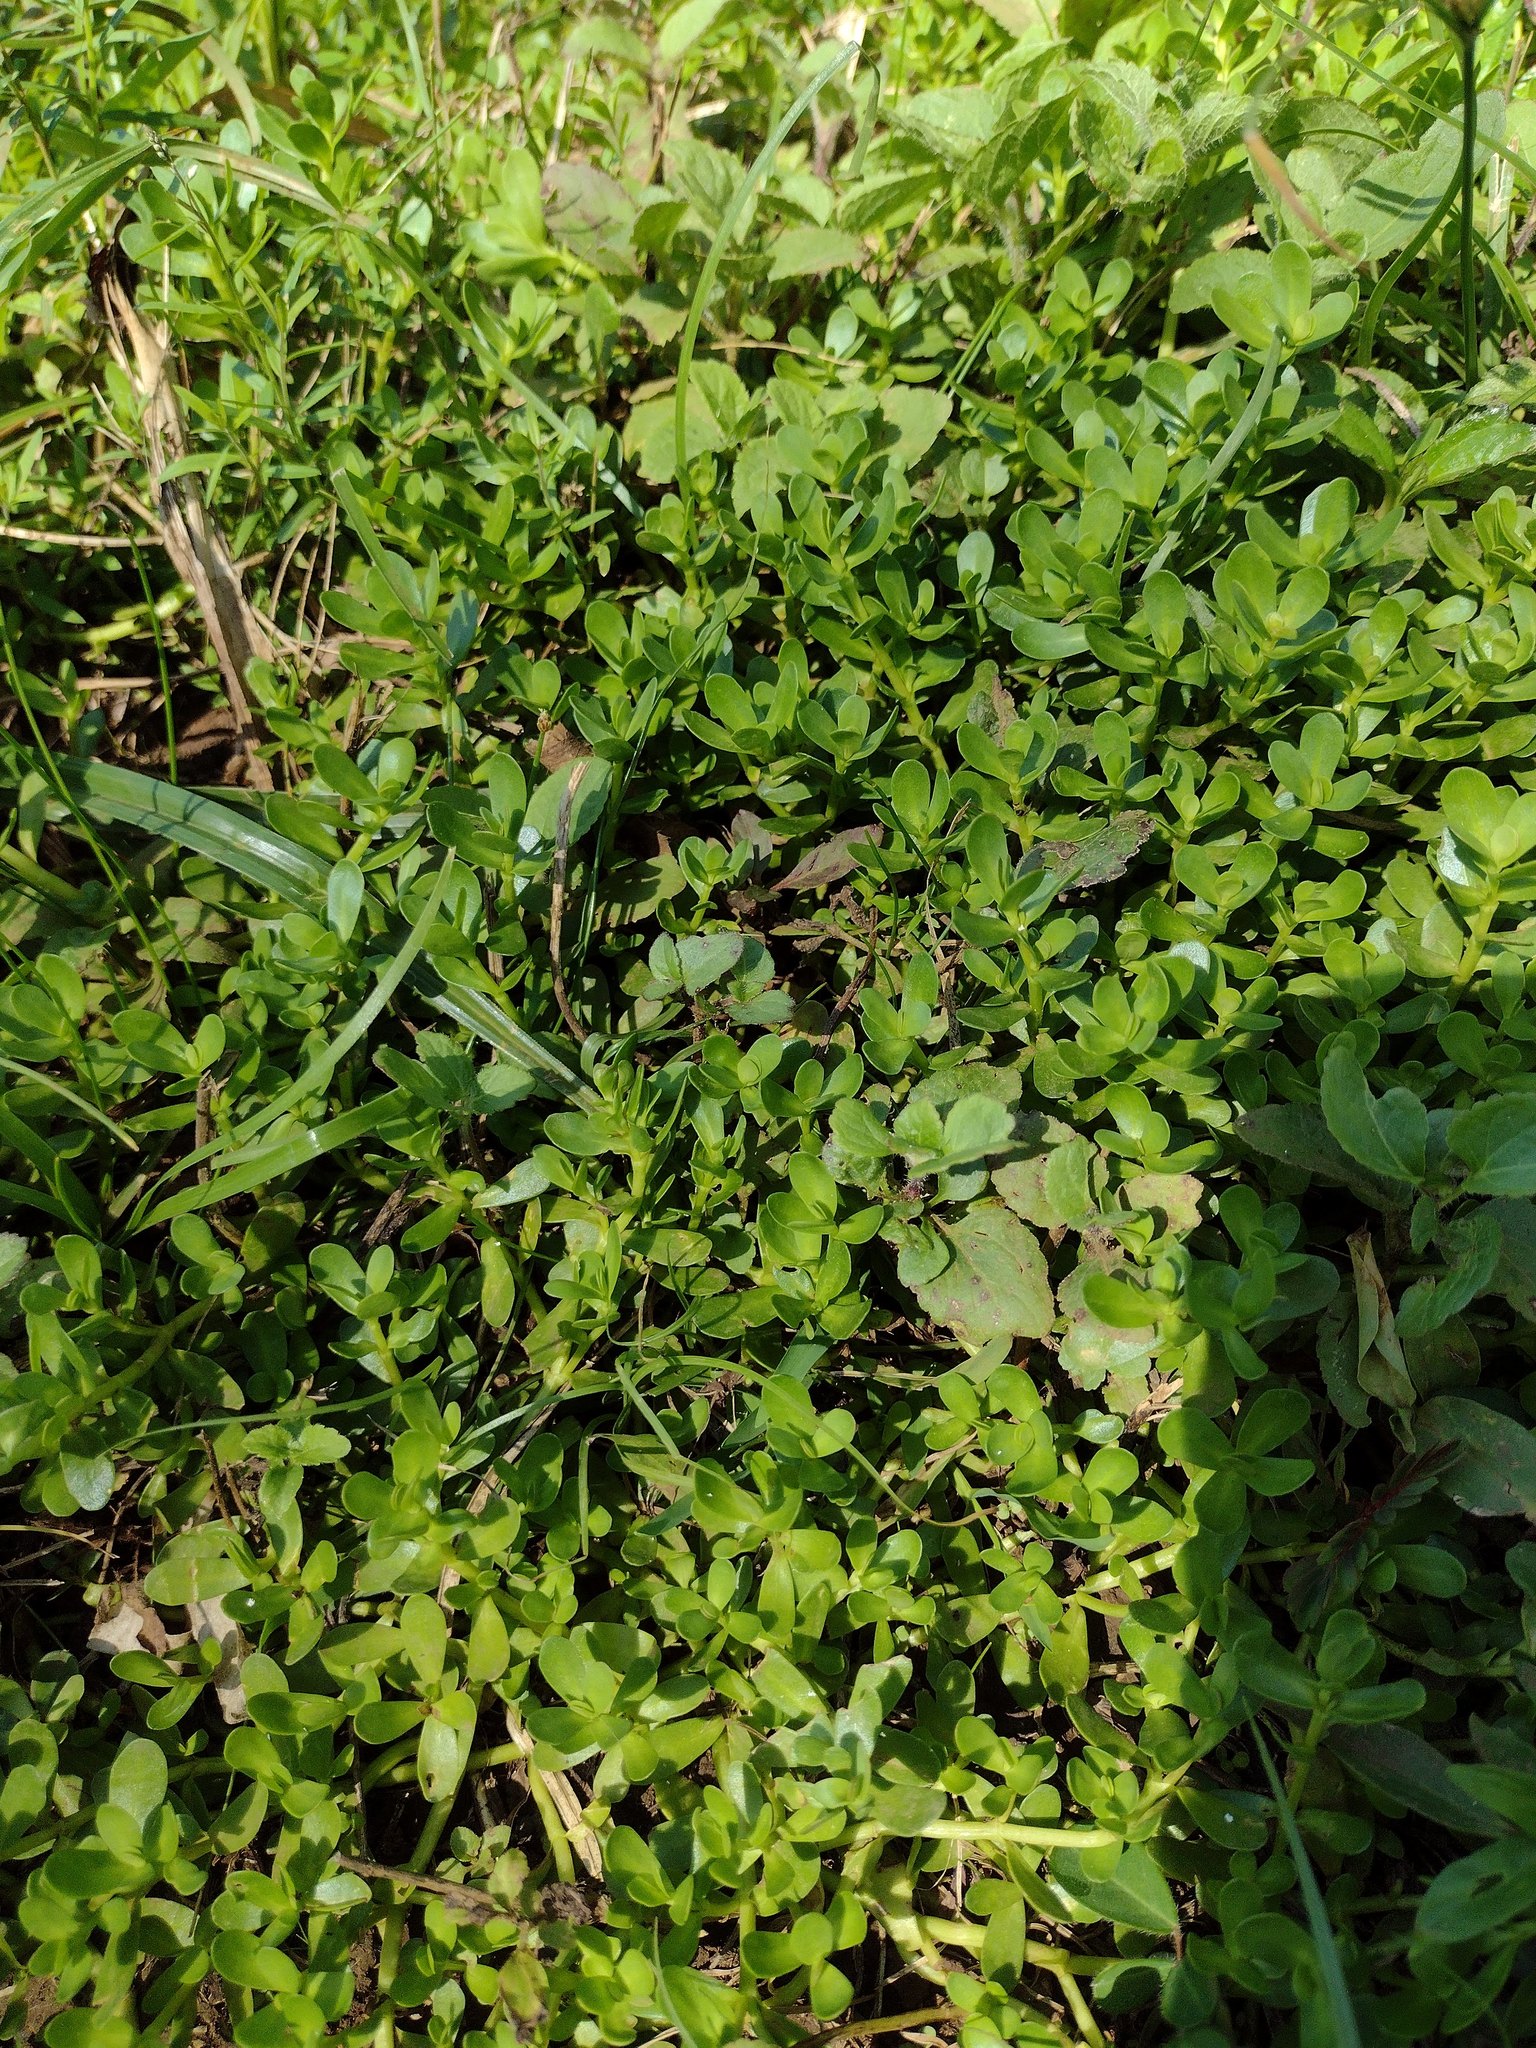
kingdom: Plantae
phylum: Tracheophyta
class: Magnoliopsida
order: Caryophyllales
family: Portulacaceae
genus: Portulaca
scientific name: Portulaca oleracea
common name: Common purslane
